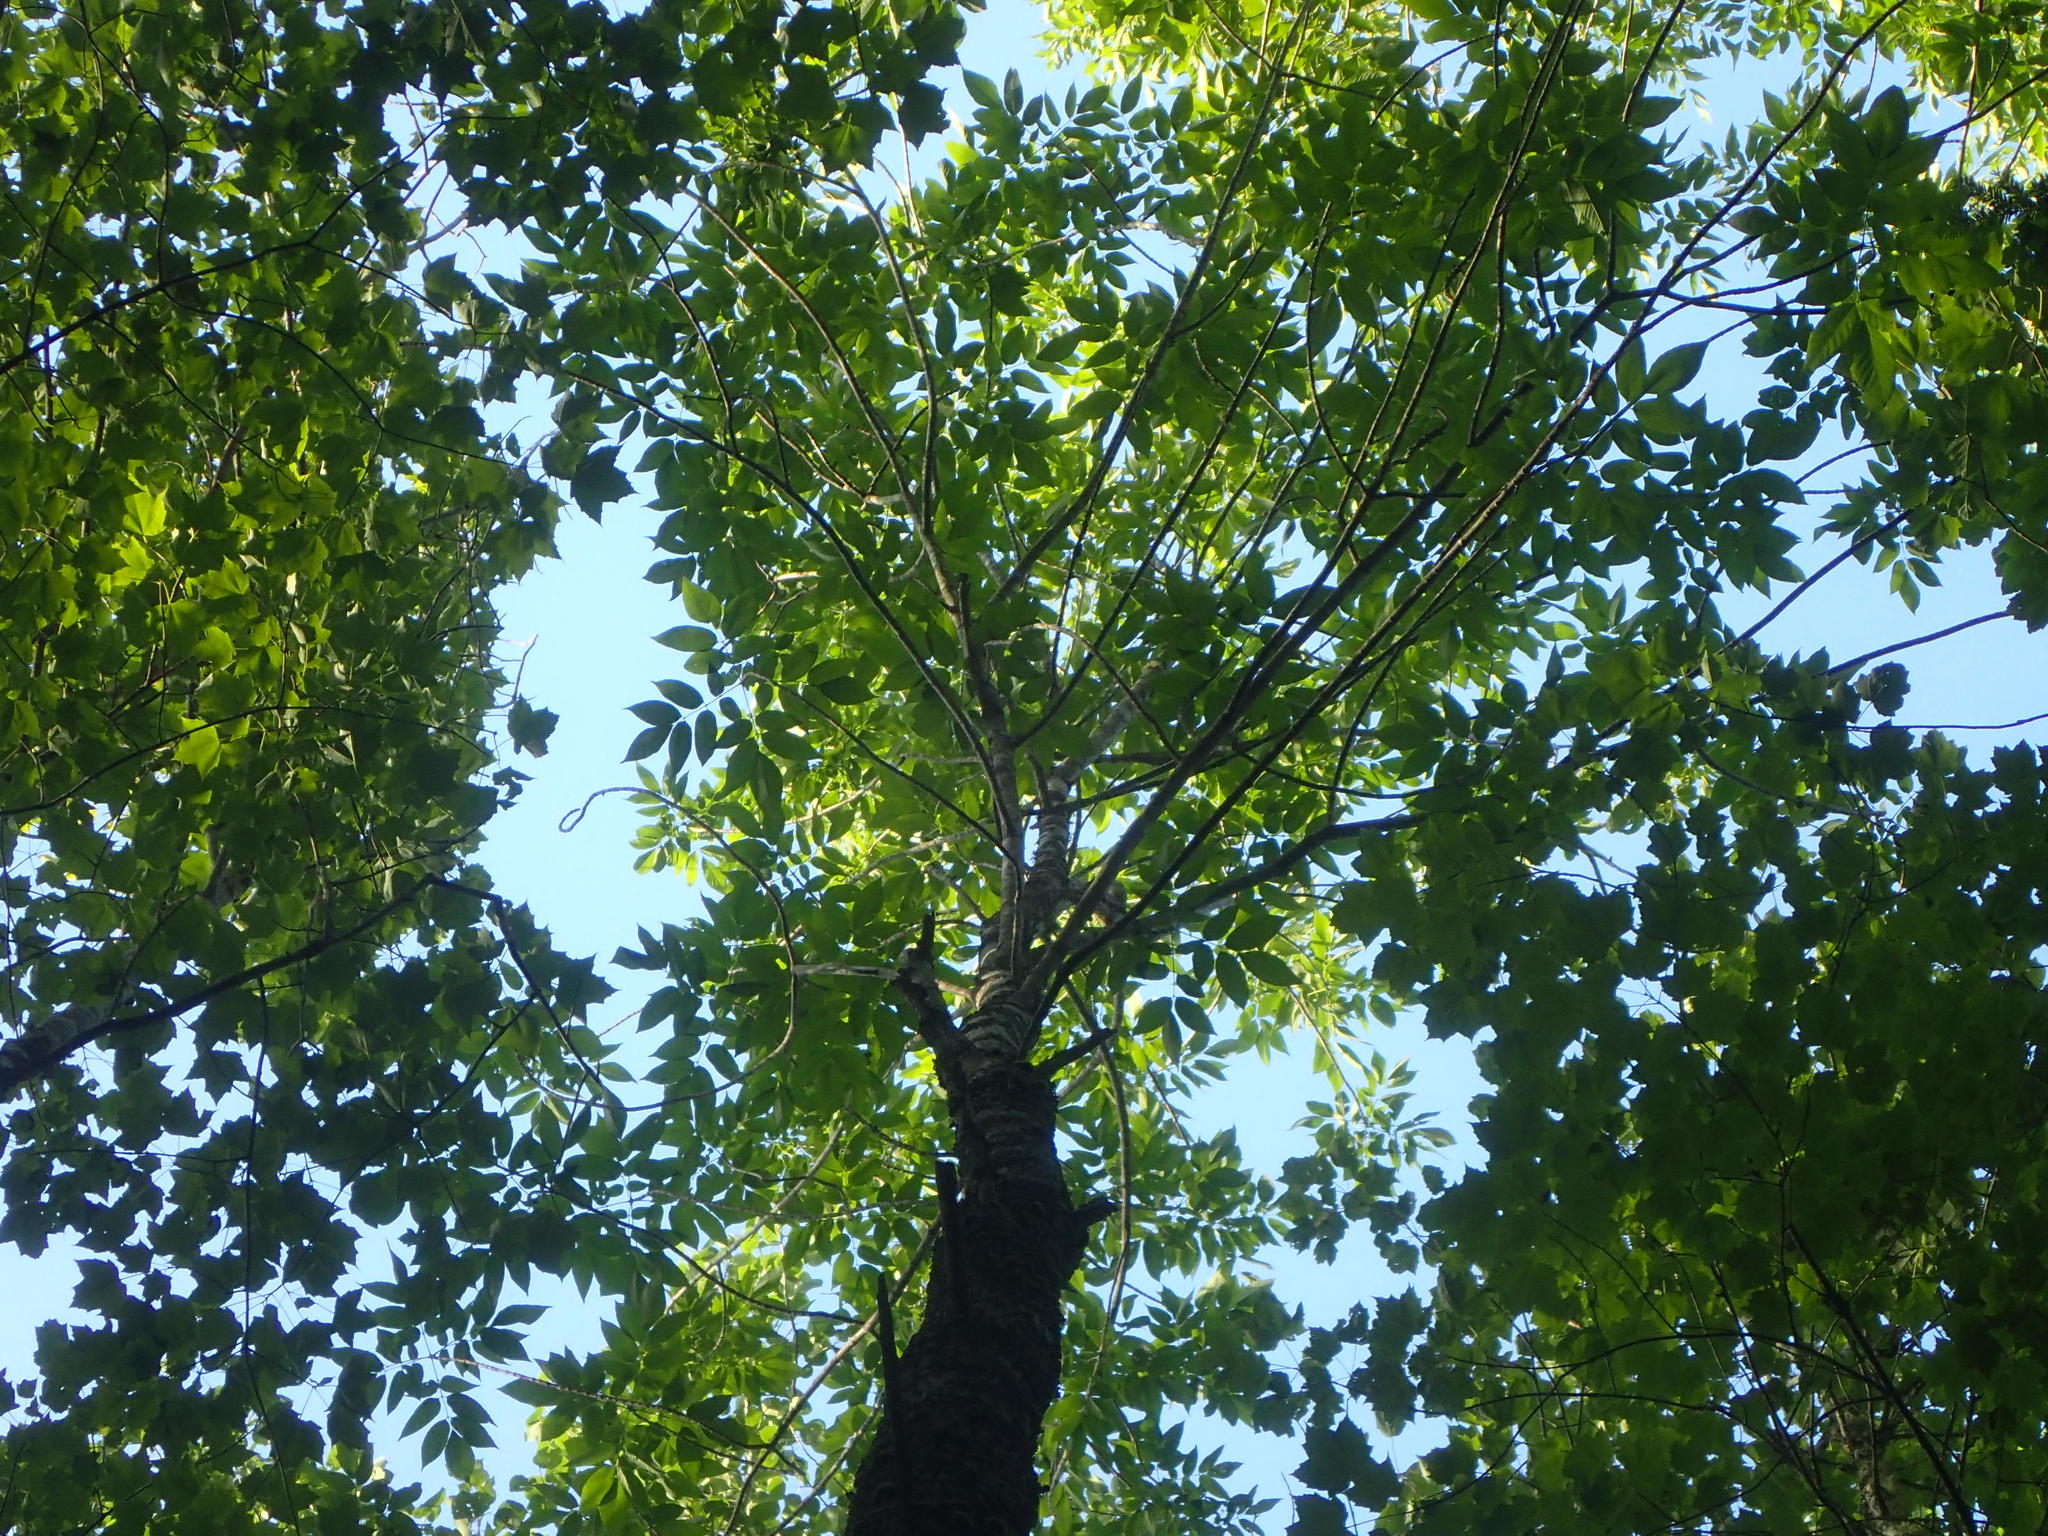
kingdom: Plantae
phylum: Tracheophyta
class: Magnoliopsida
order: Lamiales
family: Oleaceae
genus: Fraxinus
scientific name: Fraxinus americana
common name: White ash
